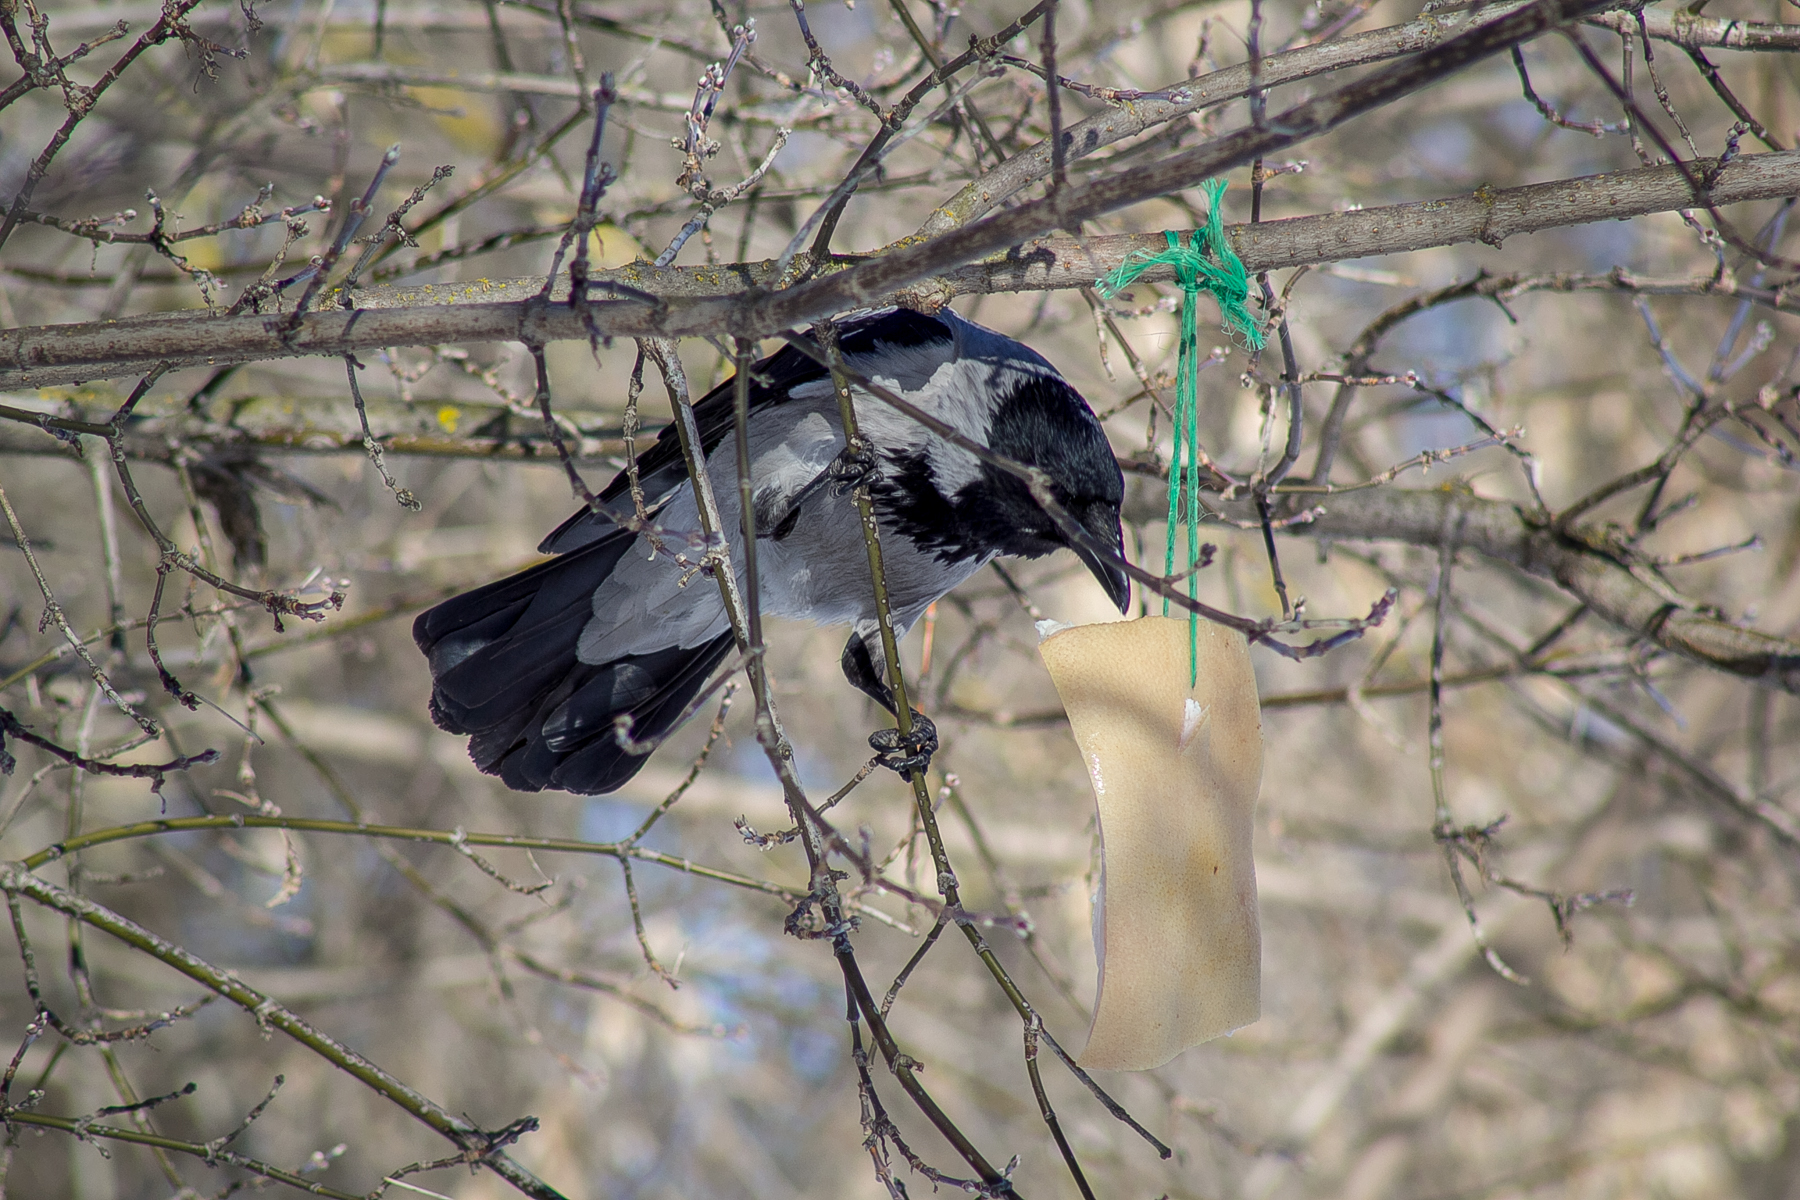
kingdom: Animalia
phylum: Chordata
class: Aves
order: Passeriformes
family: Corvidae
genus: Corvus
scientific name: Corvus cornix
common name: Hooded crow
